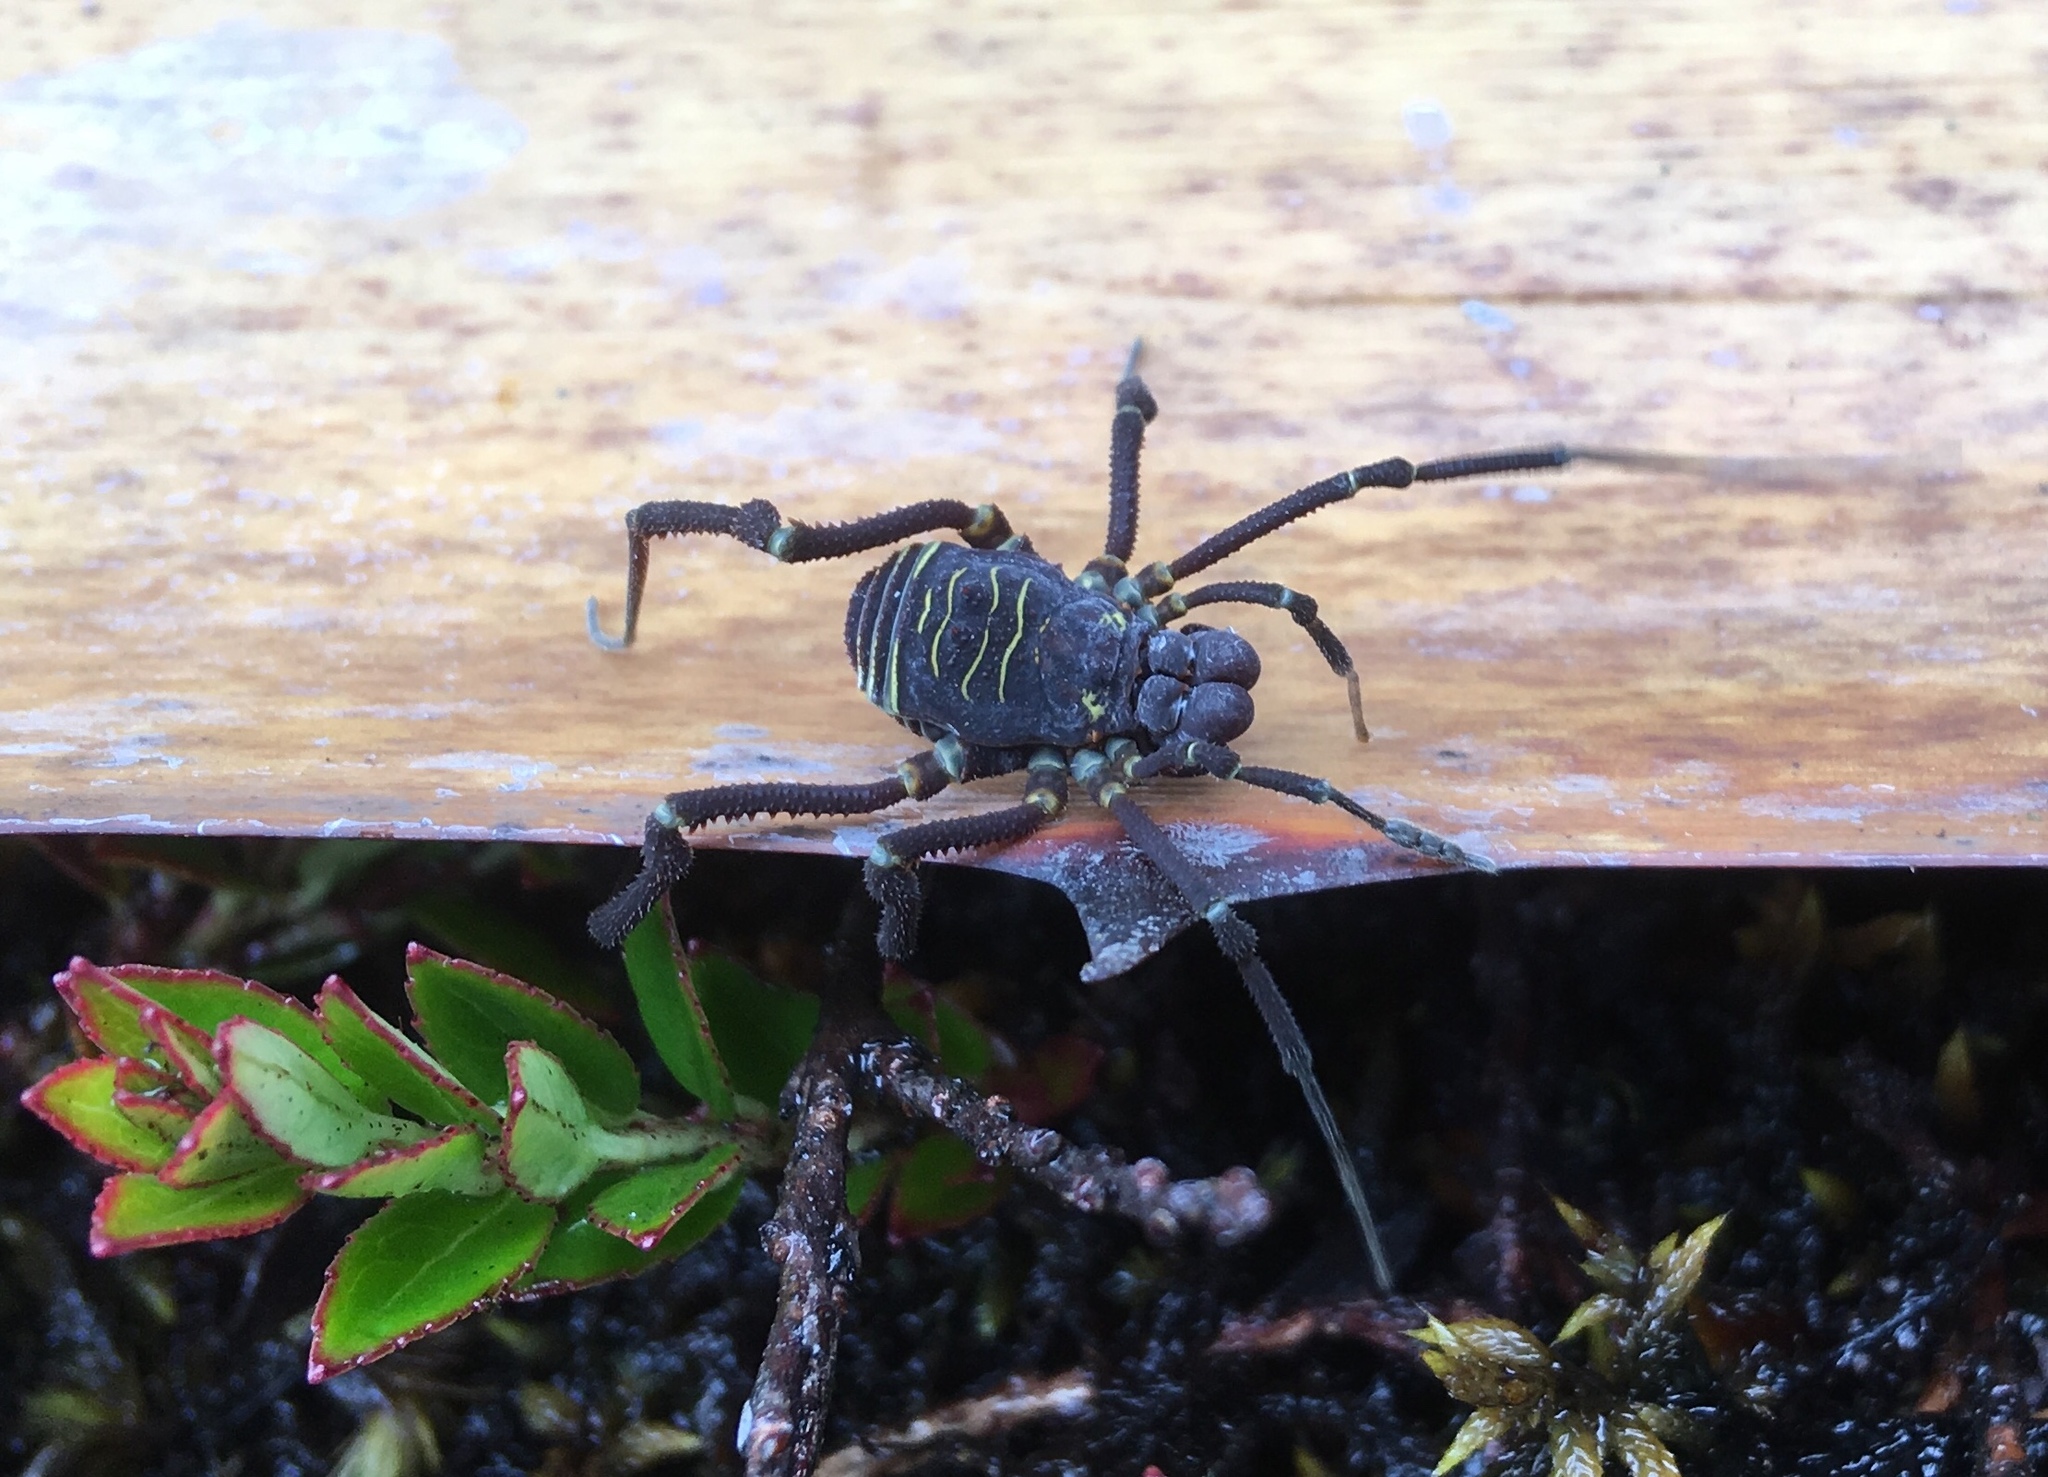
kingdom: Animalia
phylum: Arthropoda
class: Arachnida
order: Opiliones
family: Cosmetidae
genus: Rhaucus
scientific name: Rhaucus quinquelineatus
